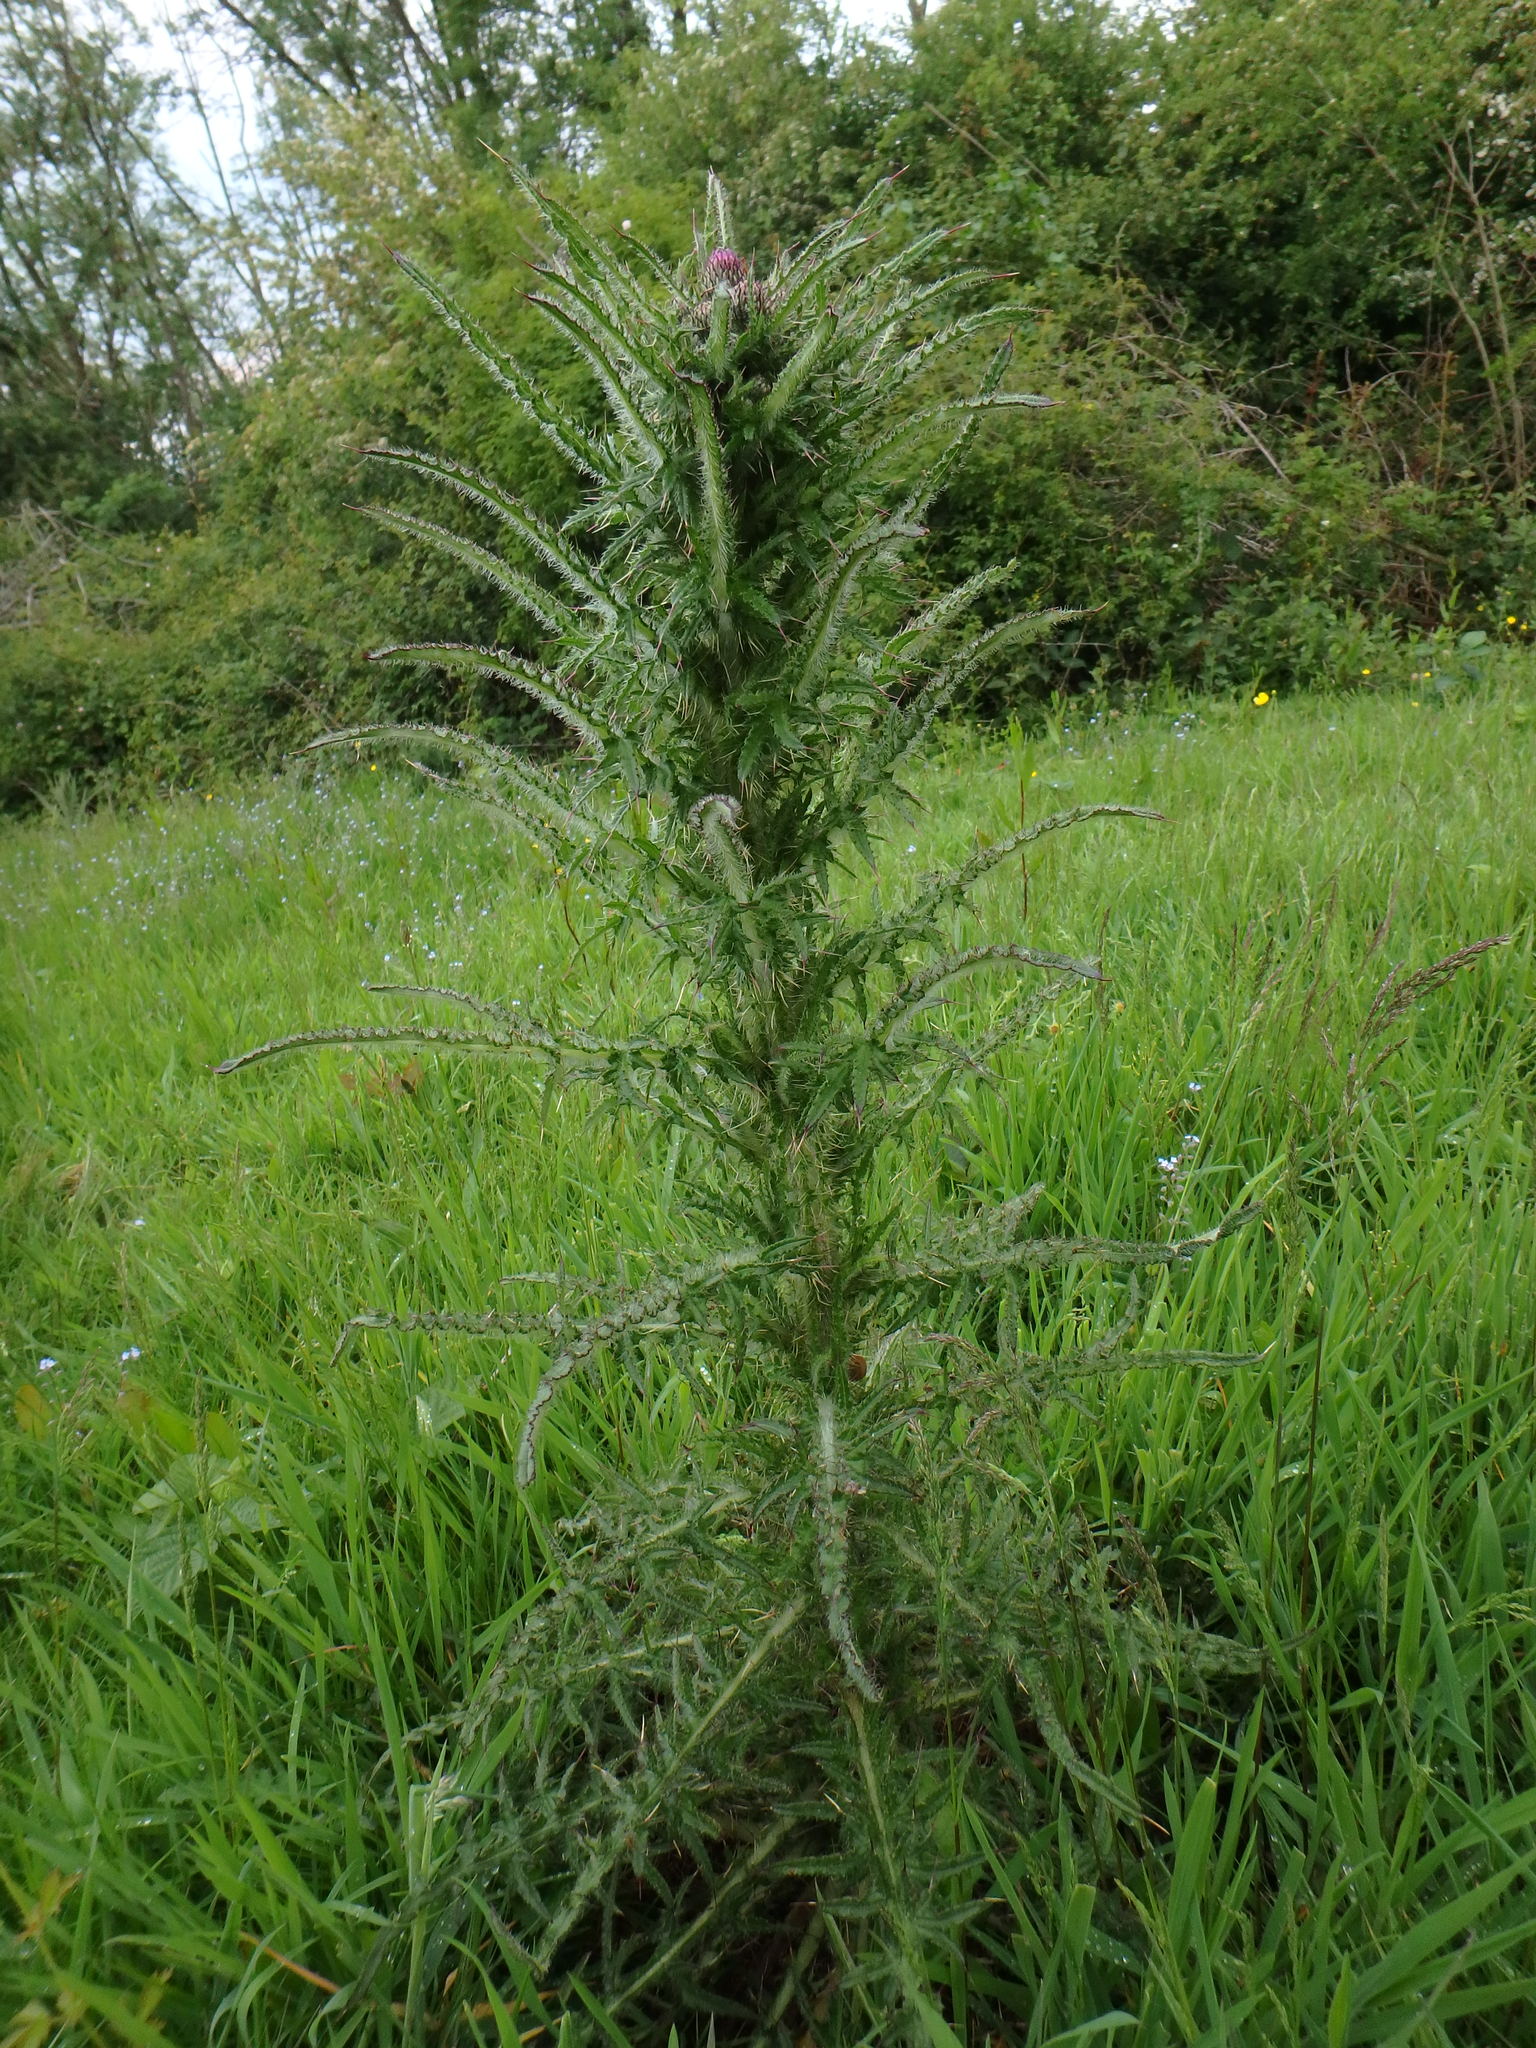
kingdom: Plantae
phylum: Tracheophyta
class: Magnoliopsida
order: Asterales
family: Asteraceae
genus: Cirsium
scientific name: Cirsium palustre
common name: Marsh thistle
